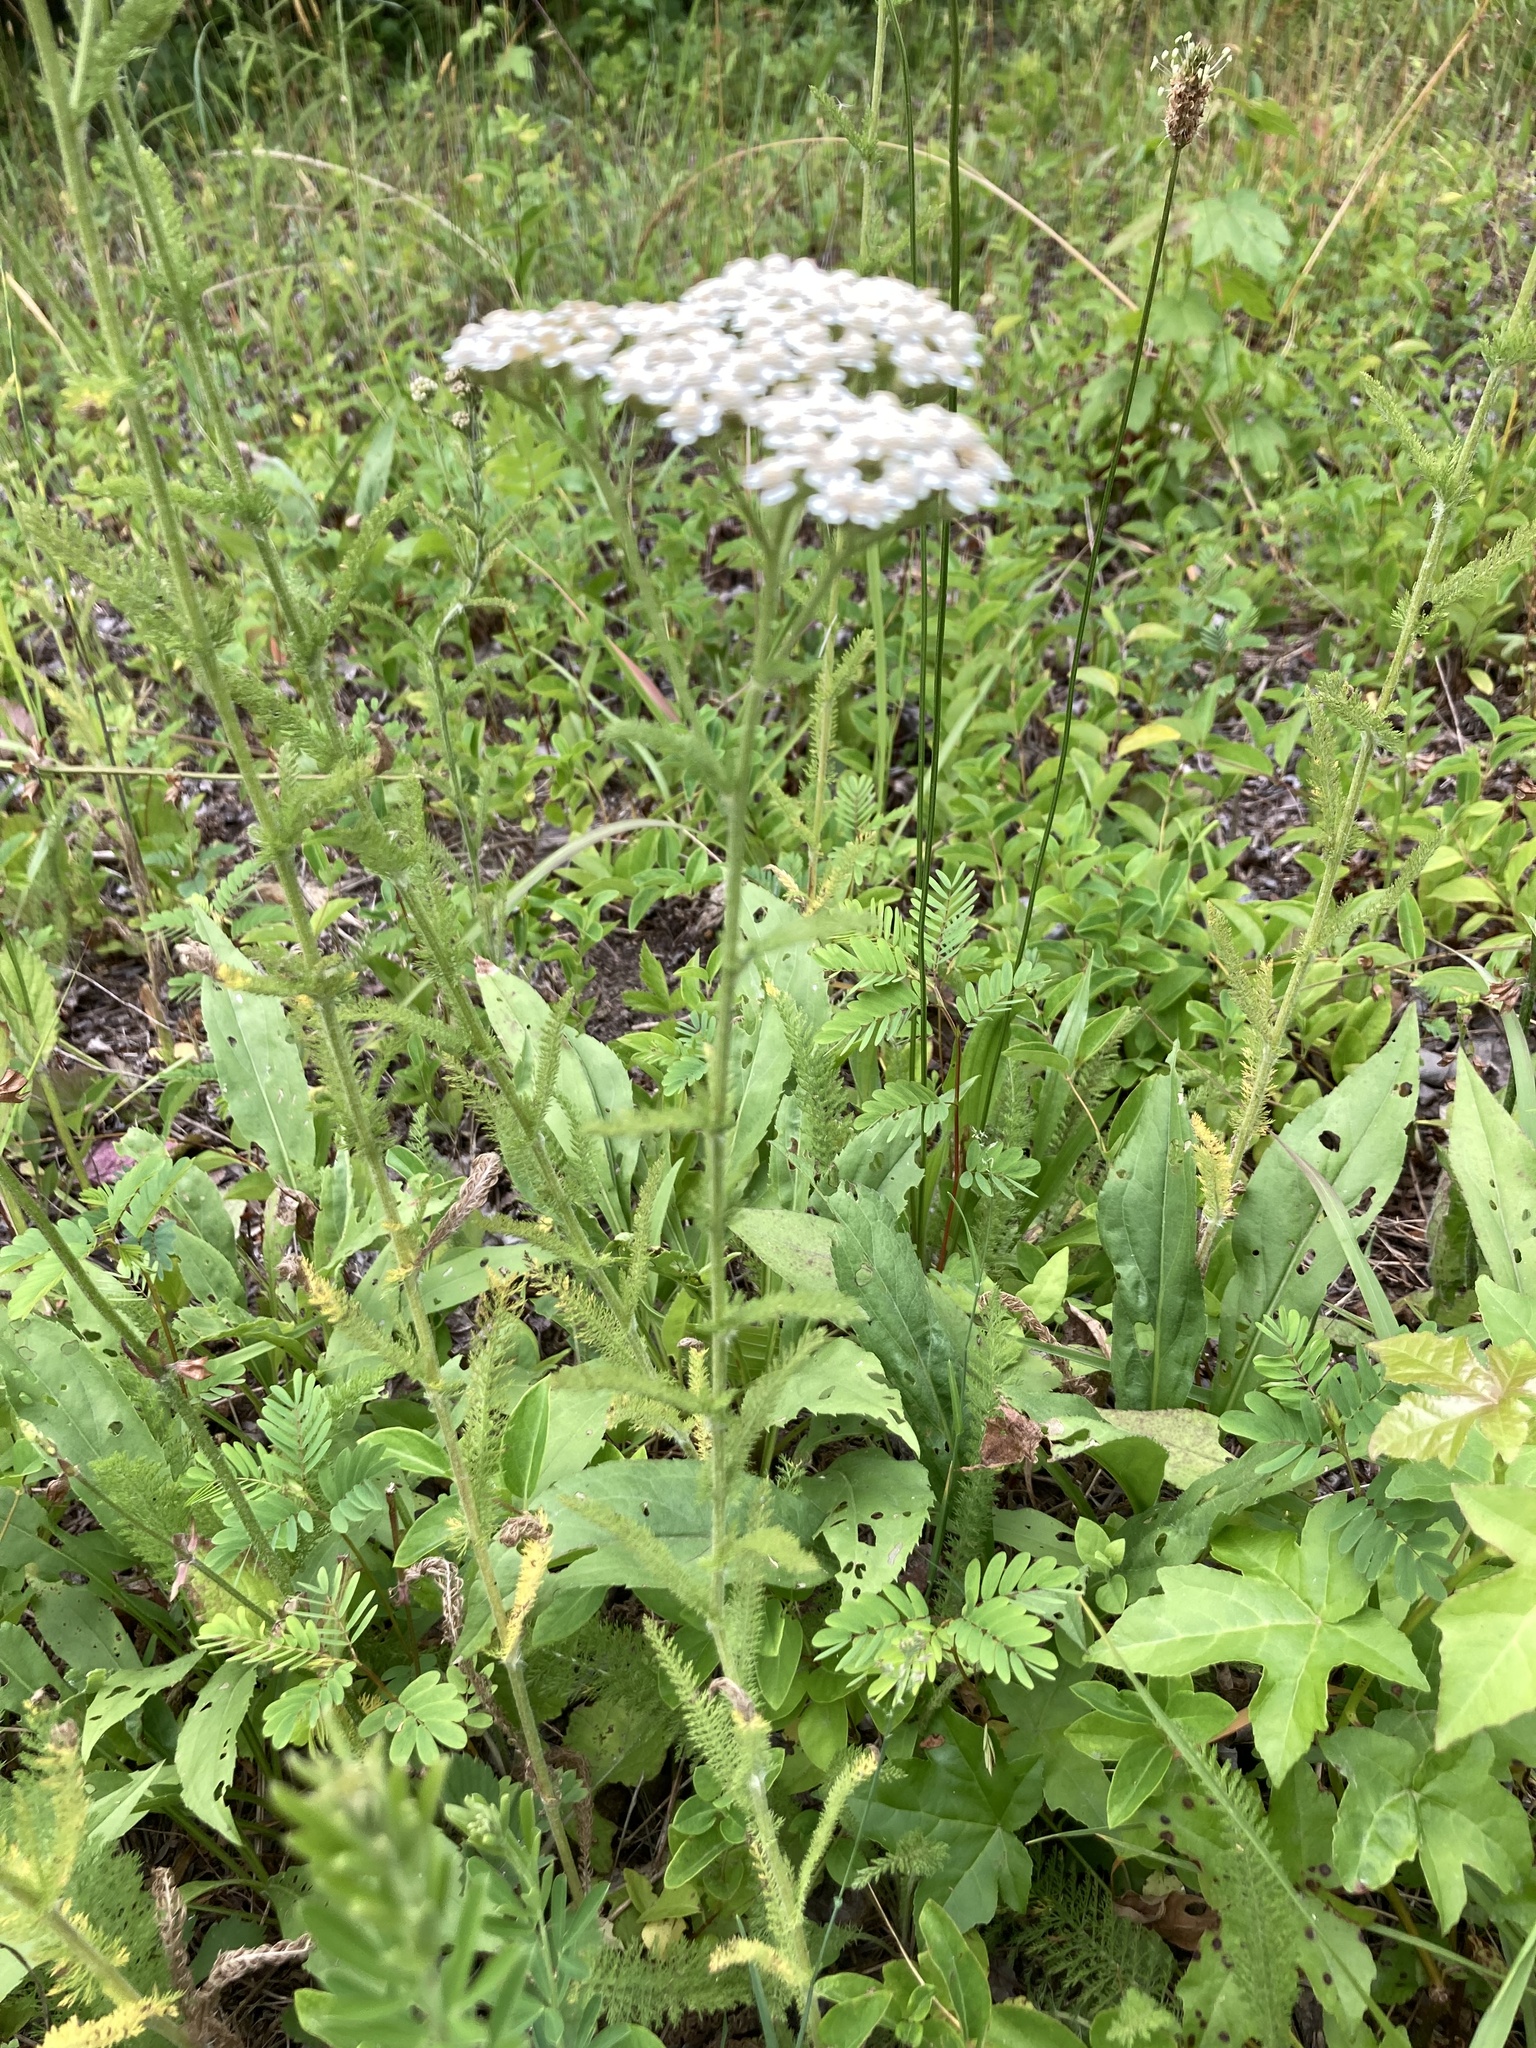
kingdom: Plantae
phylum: Tracheophyta
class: Magnoliopsida
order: Asterales
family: Asteraceae
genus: Achillea
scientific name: Achillea millefolium
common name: Yarrow
